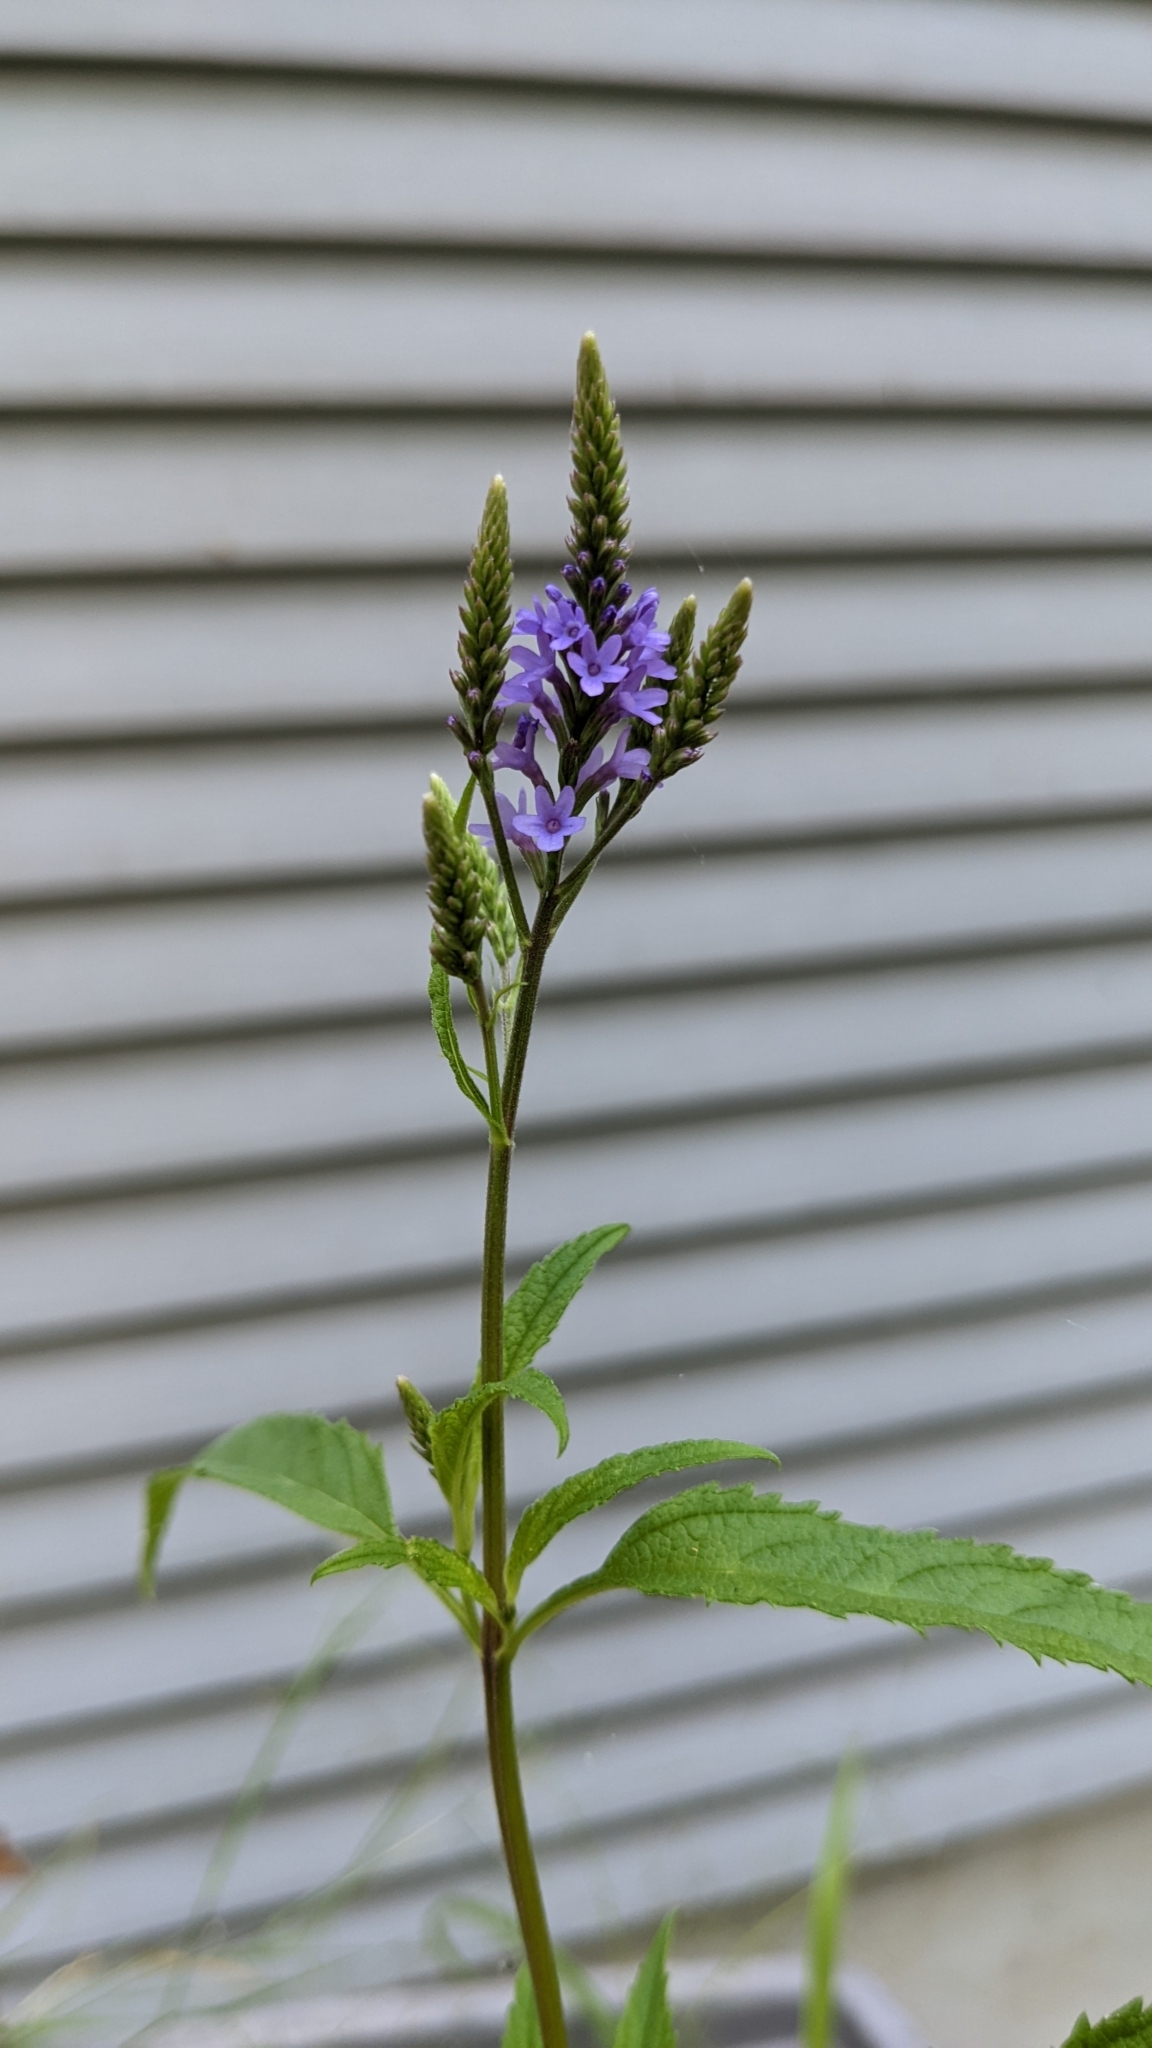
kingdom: Plantae
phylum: Tracheophyta
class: Magnoliopsida
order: Lamiales
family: Verbenaceae
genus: Verbena
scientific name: Verbena hastata
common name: American blue vervain
